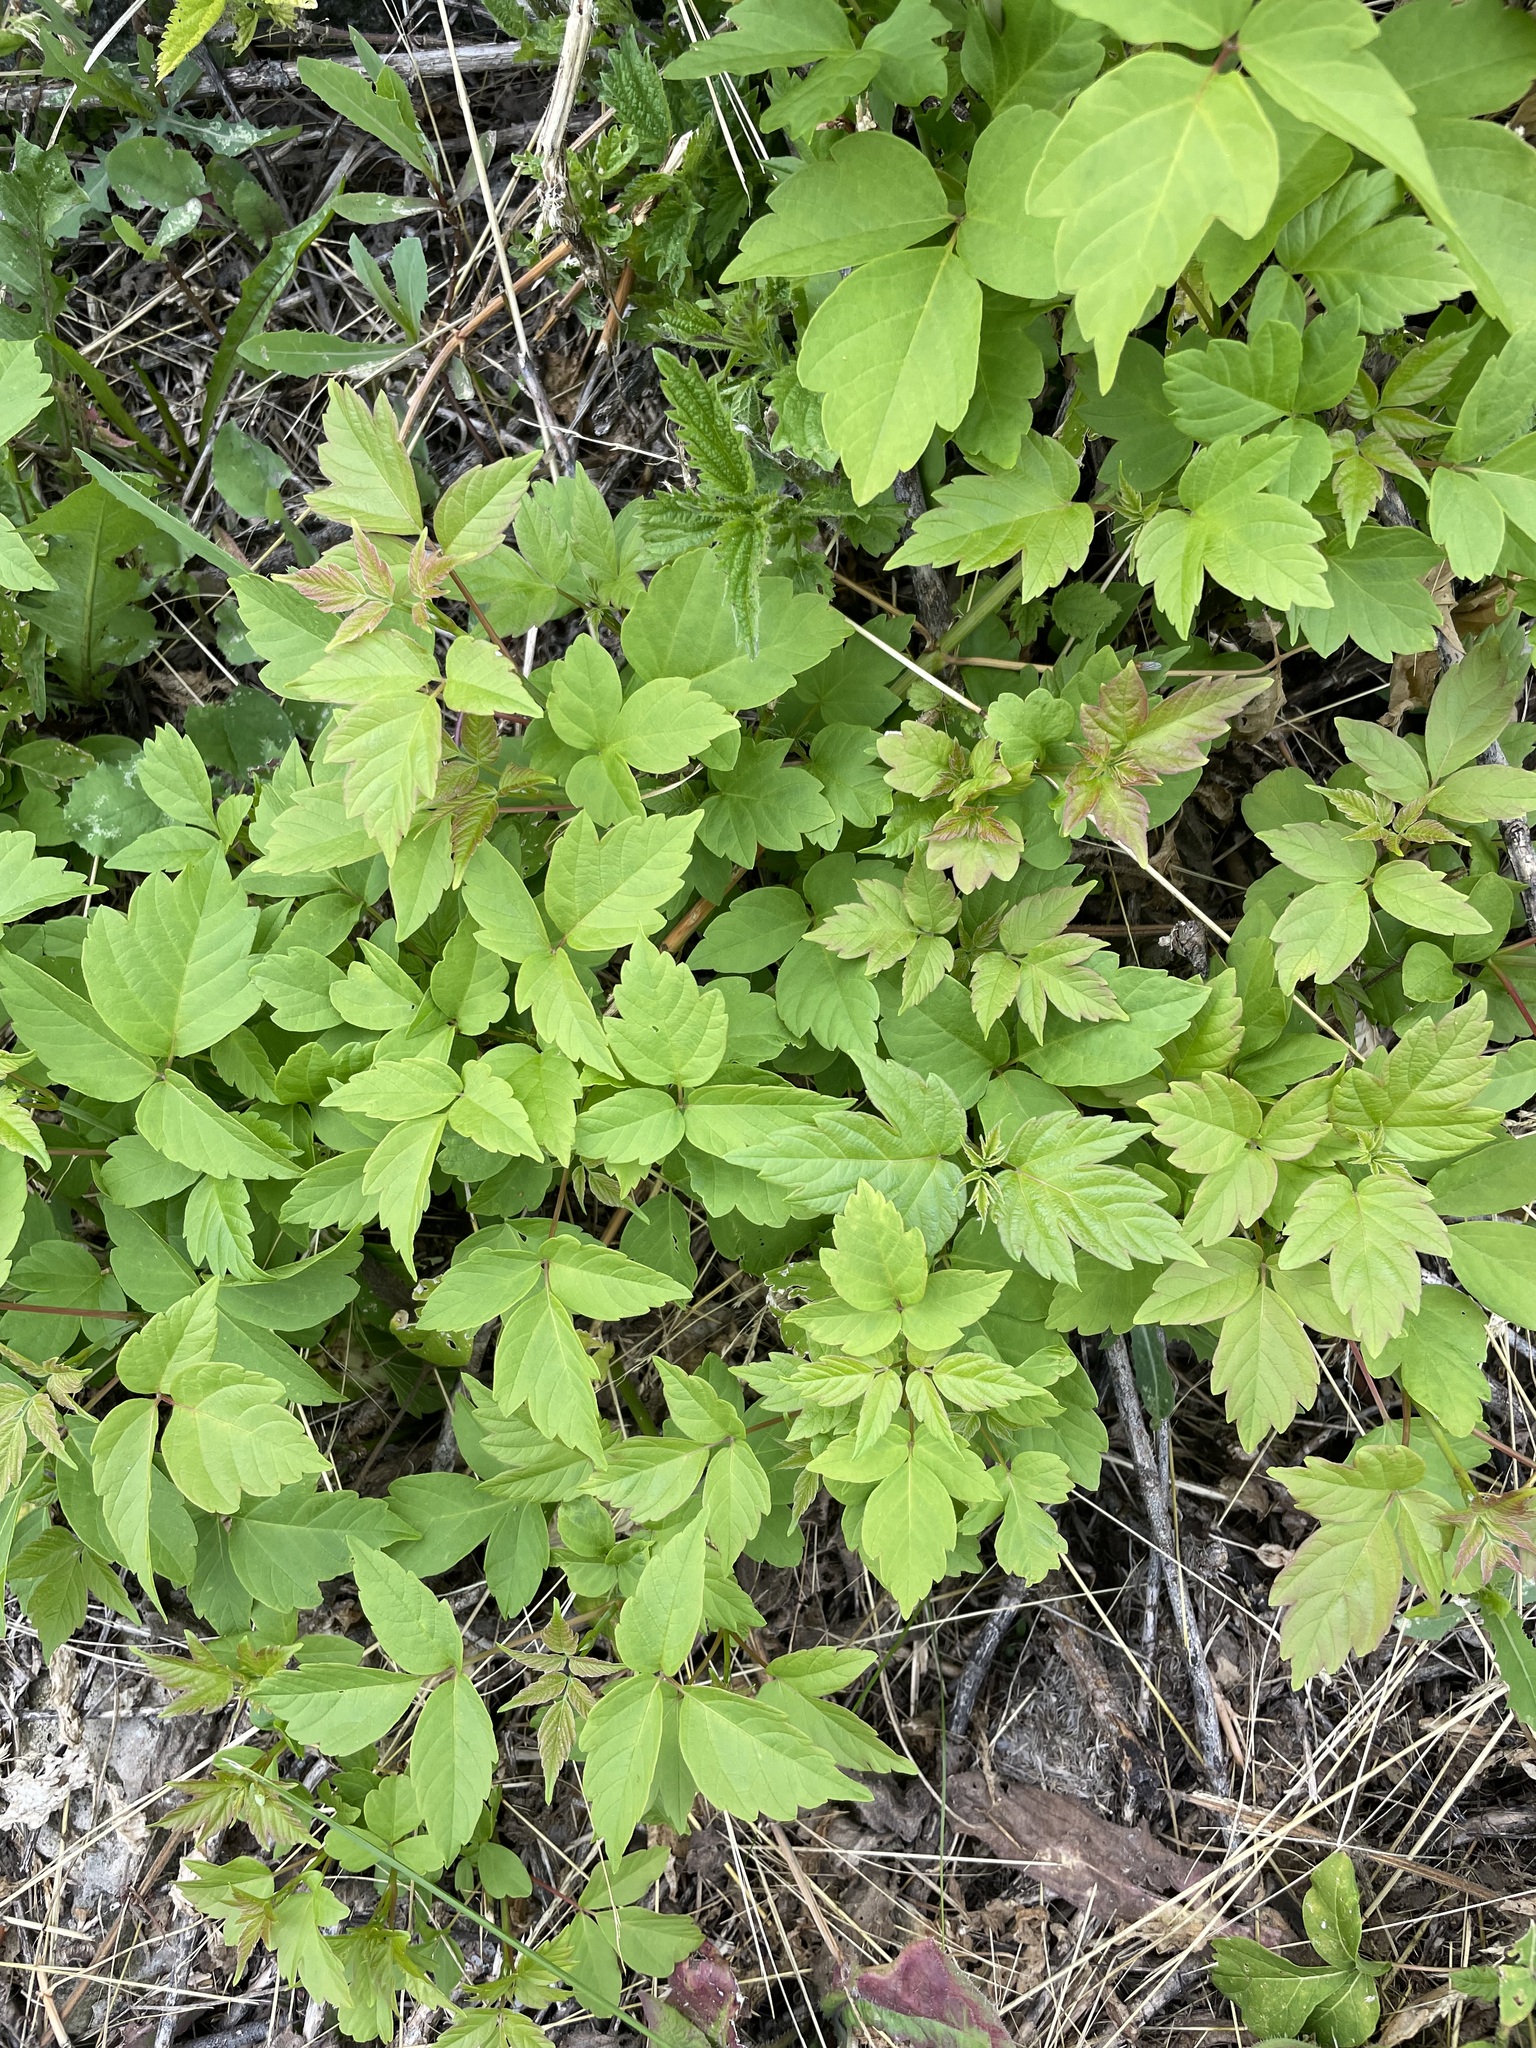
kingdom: Plantae
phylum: Tracheophyta
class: Magnoliopsida
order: Sapindales
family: Sapindaceae
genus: Acer
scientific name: Acer negundo
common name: Ashleaf maple
